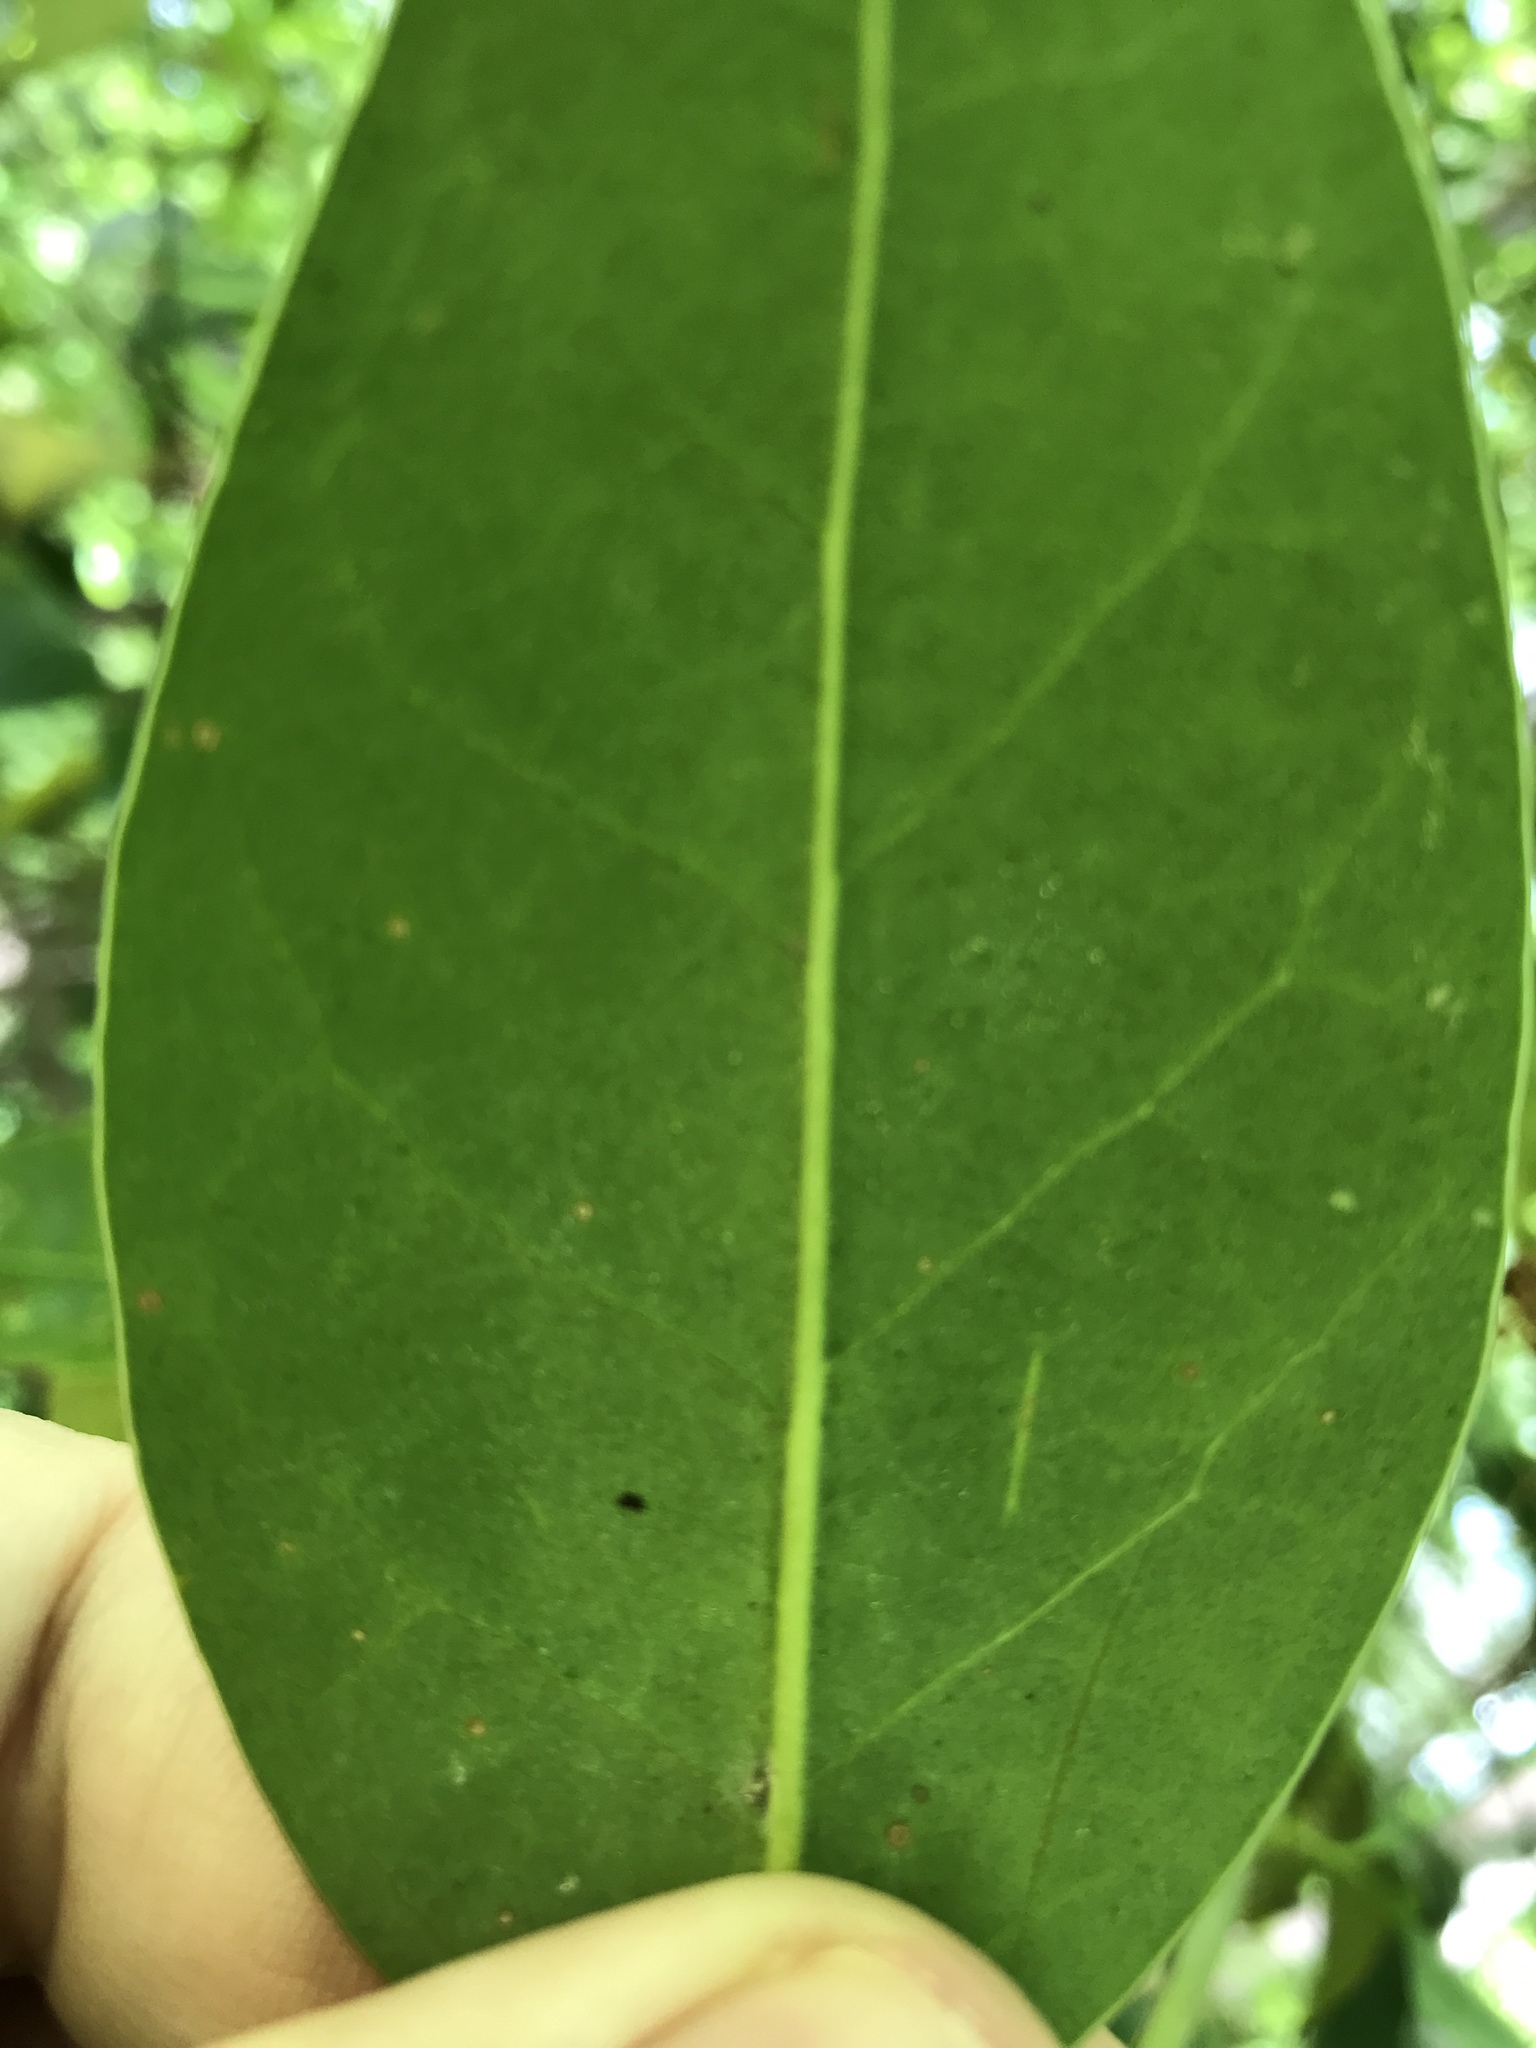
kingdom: Plantae
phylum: Tracheophyta
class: Magnoliopsida
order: Lamiales
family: Oleaceae
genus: Ligustrum
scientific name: Ligustrum lucidum
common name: Glossy privet
